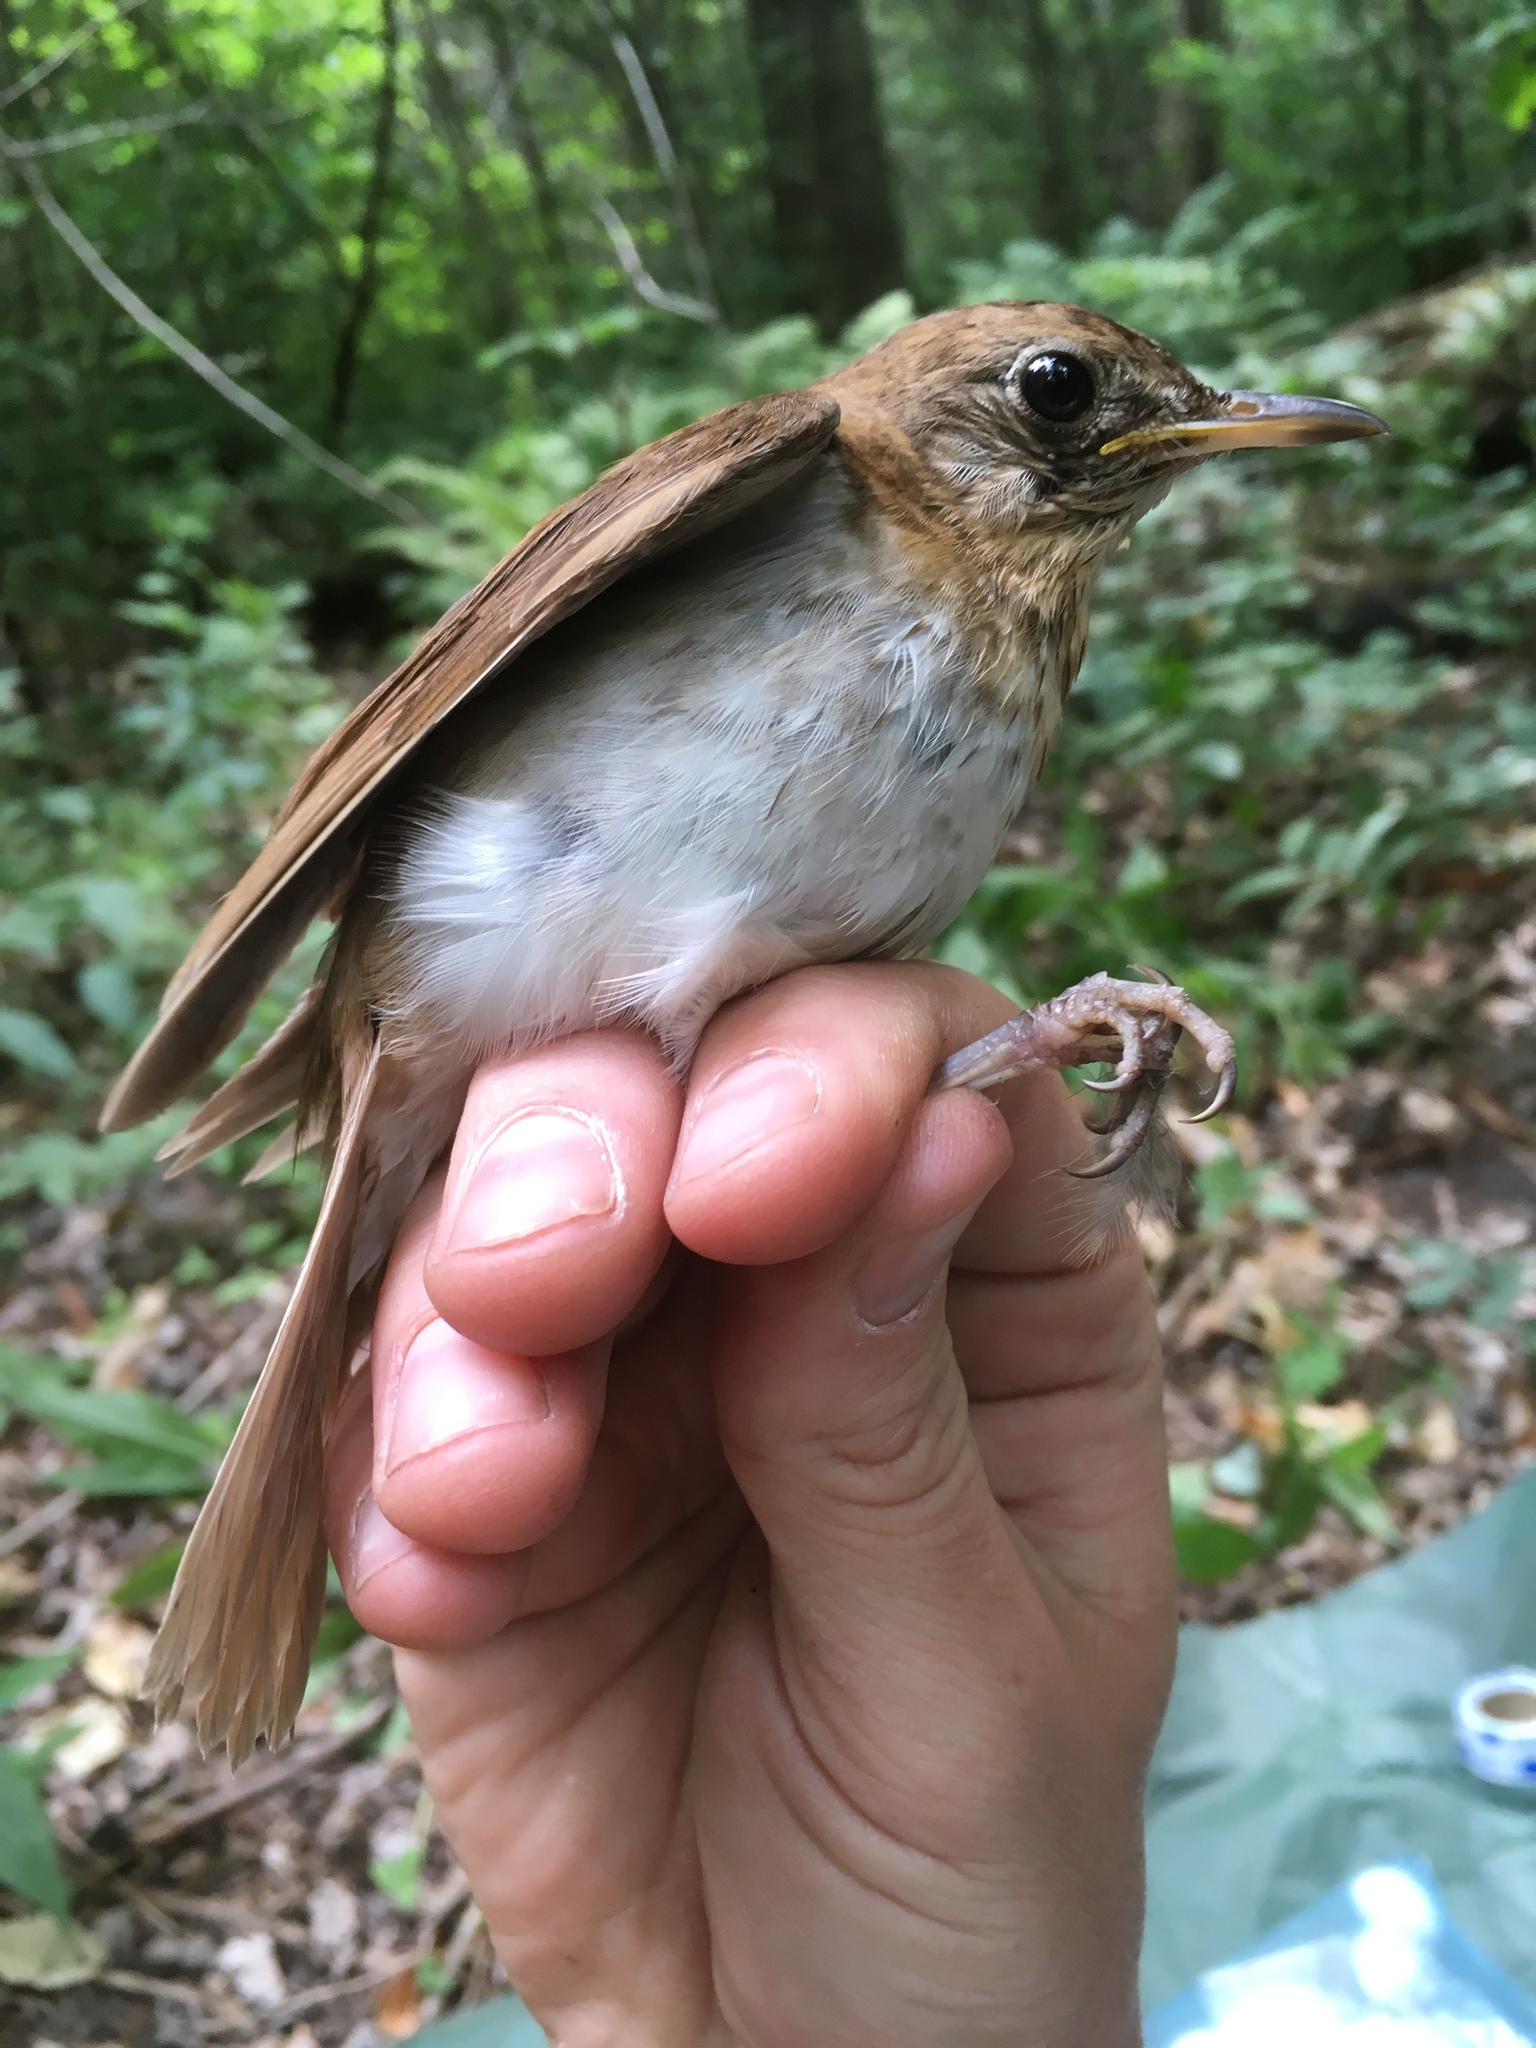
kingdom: Animalia
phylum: Chordata
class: Aves
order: Passeriformes
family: Turdidae
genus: Catharus
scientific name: Catharus fuscescens
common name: Veery
